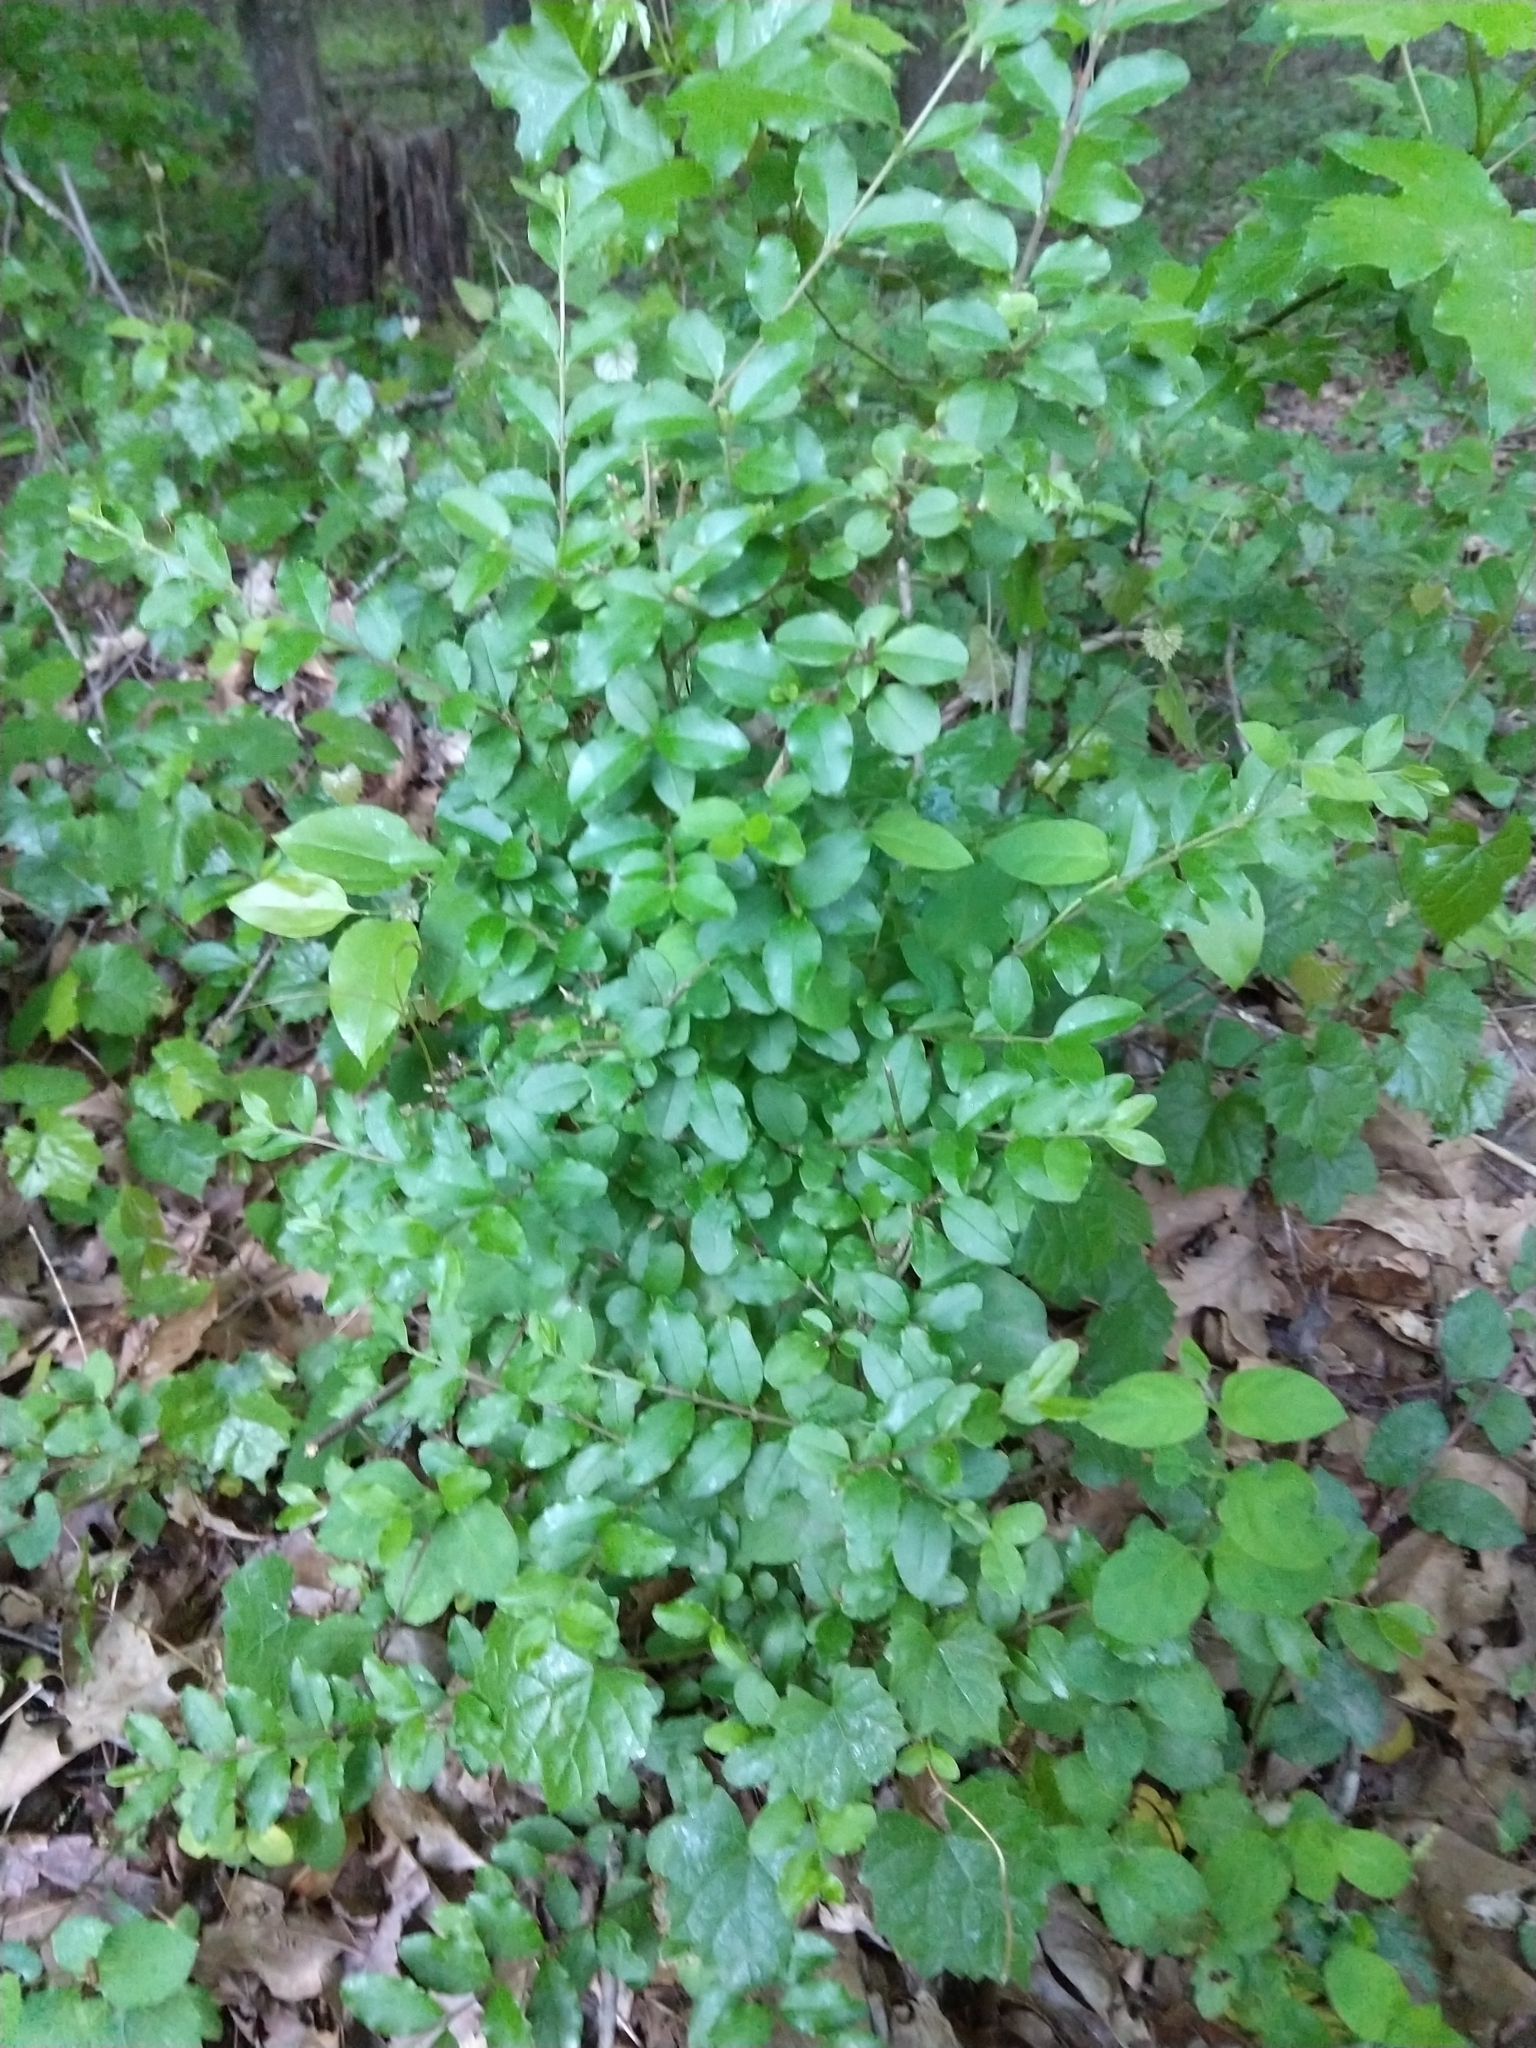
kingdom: Plantae
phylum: Tracheophyta
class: Magnoliopsida
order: Lamiales
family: Oleaceae
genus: Ligustrum
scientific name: Ligustrum sinense
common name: Chinese privet
